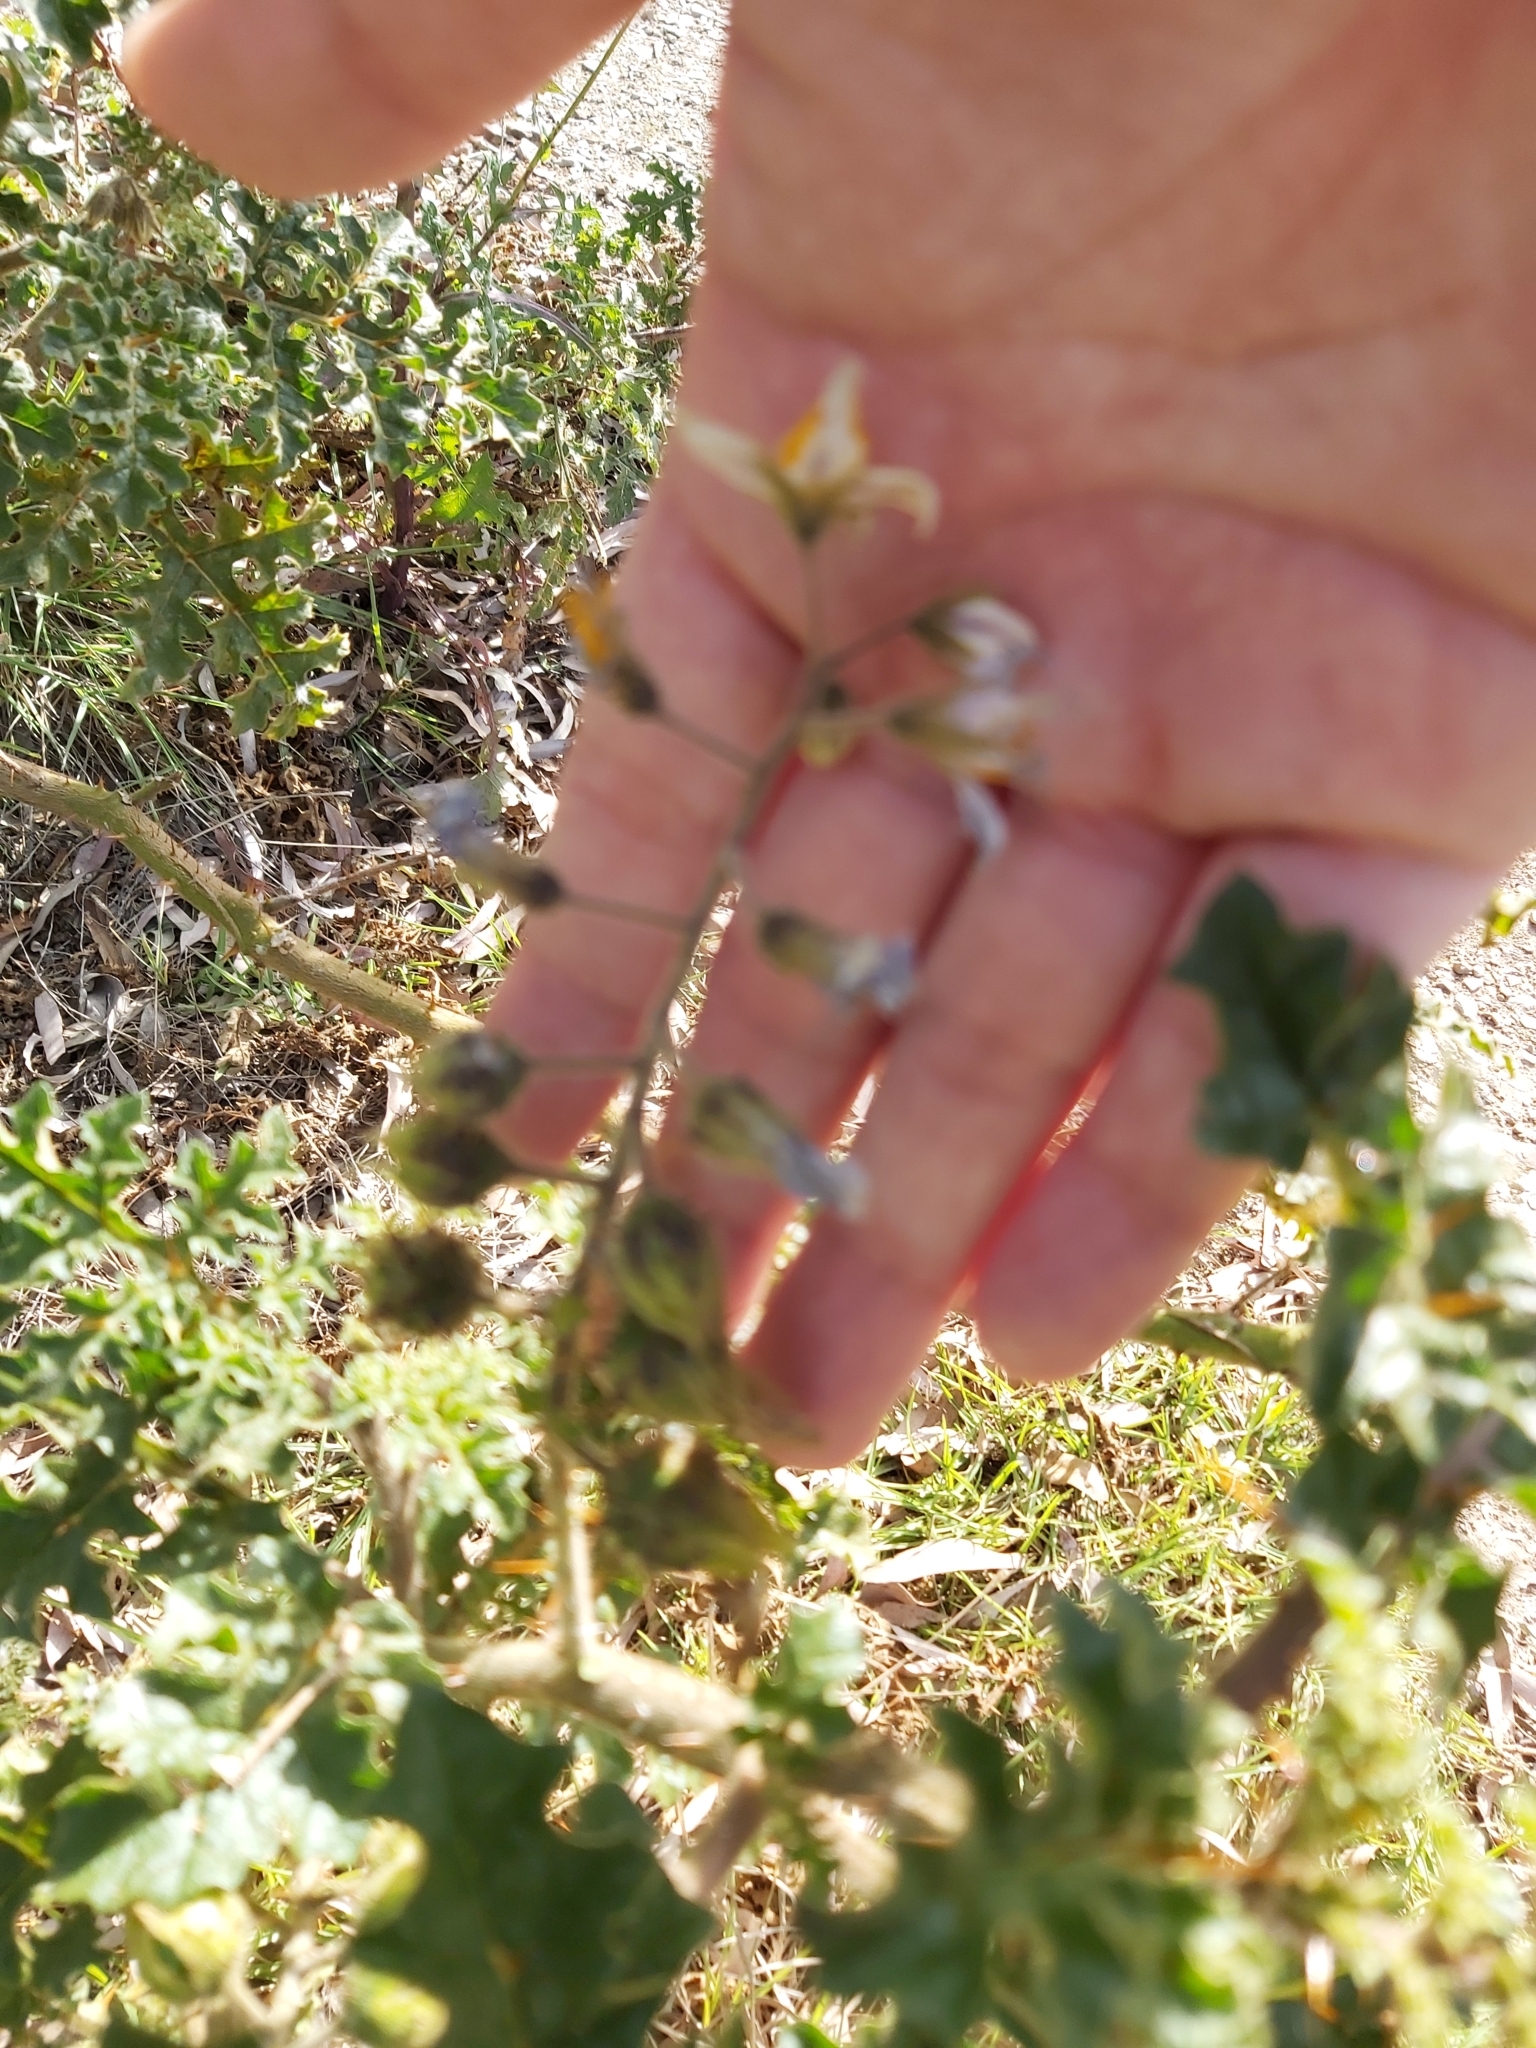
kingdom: Plantae
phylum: Tracheophyta
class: Magnoliopsida
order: Solanales
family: Solanaceae
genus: Solanum
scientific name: Solanum sisymbriifolium
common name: Red buffalo-bur
